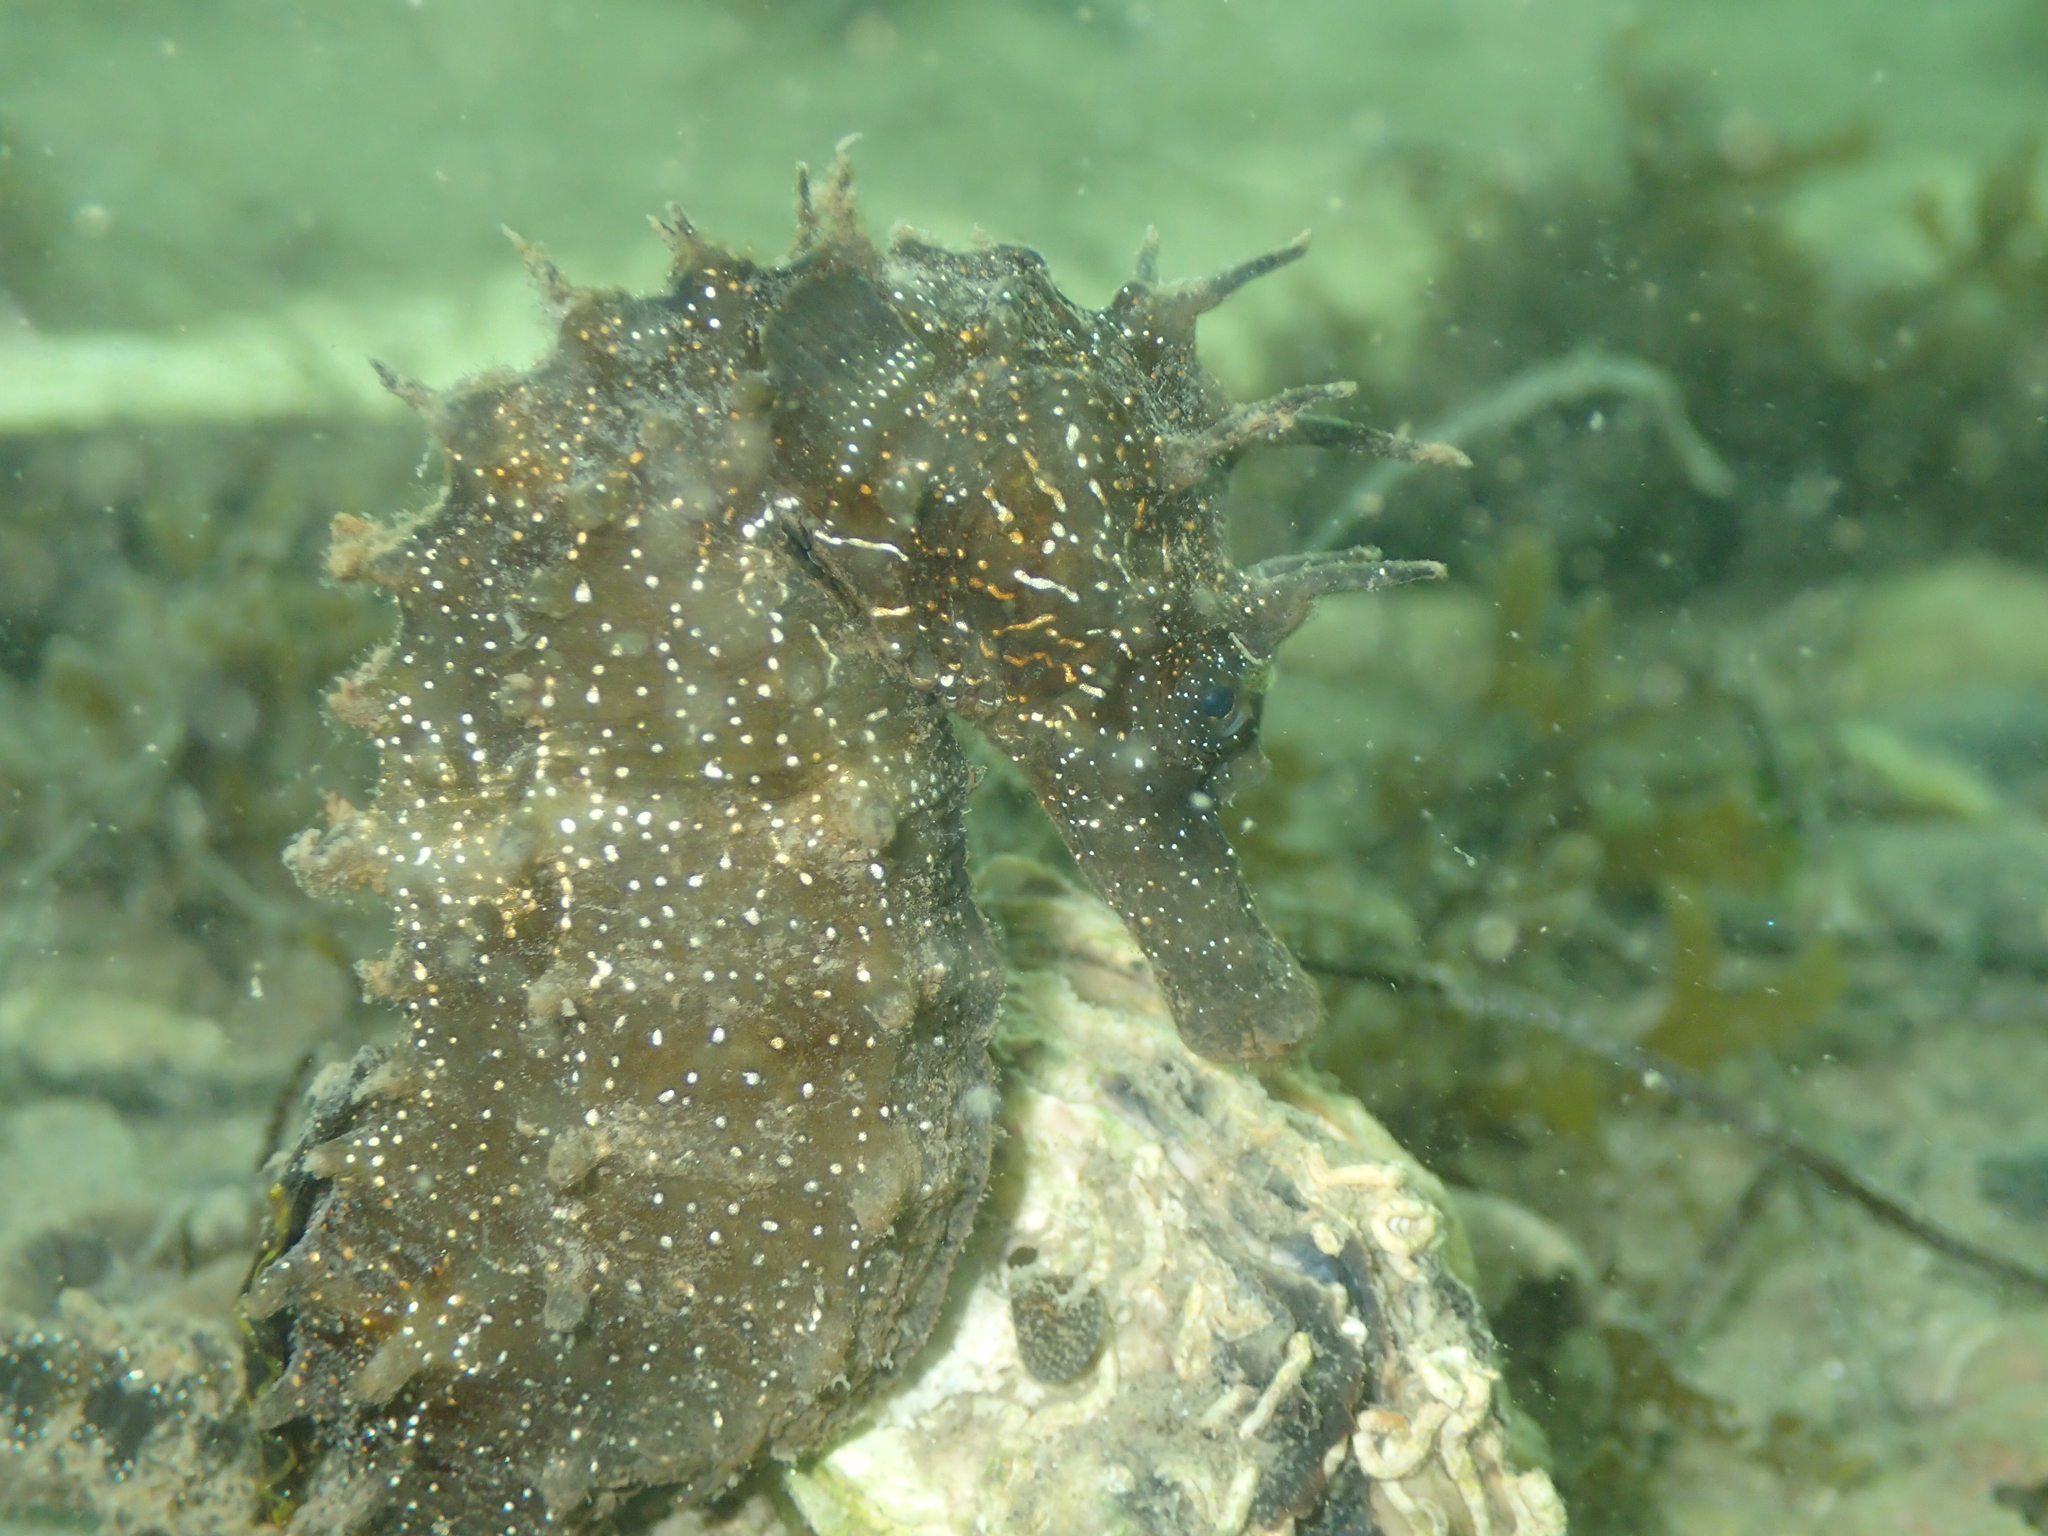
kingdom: Animalia
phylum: Chordata
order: Syngnathiformes
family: Syngnathidae
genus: Hippocampus
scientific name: Hippocampus guttulatus
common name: Long-snouted seahorse
